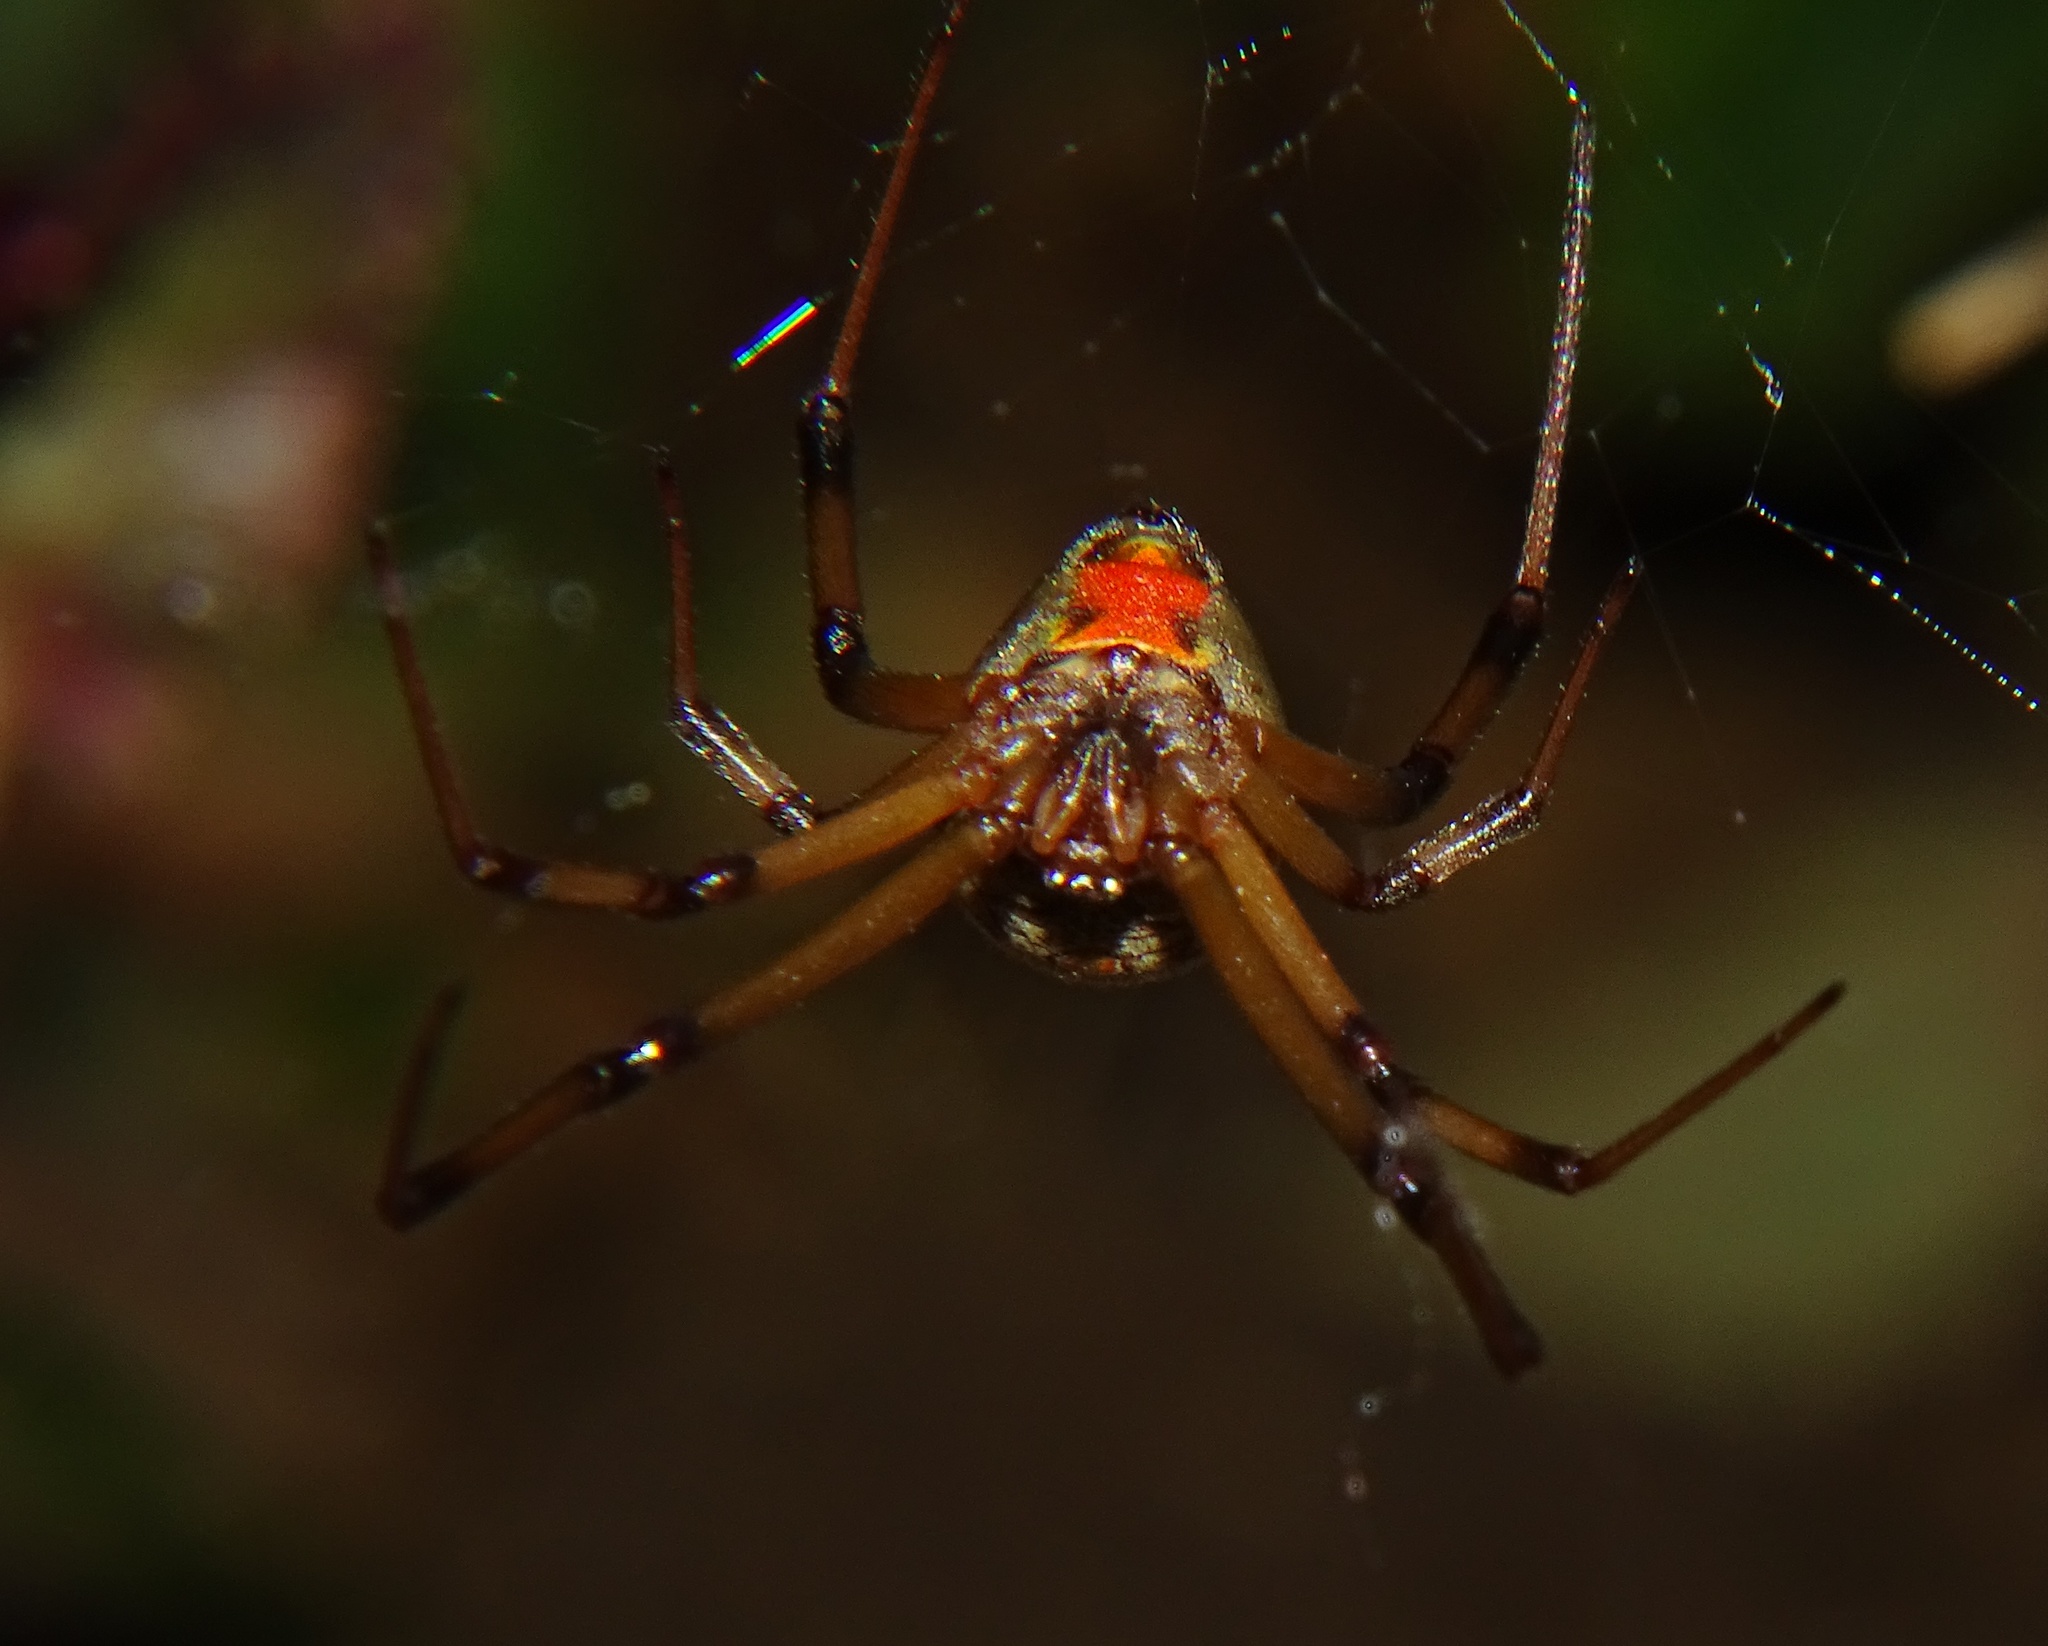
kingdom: Animalia
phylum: Arthropoda
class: Arachnida
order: Araneae
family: Theridiidae
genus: Latrodectus
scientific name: Latrodectus geometricus
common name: Brown widow spider
